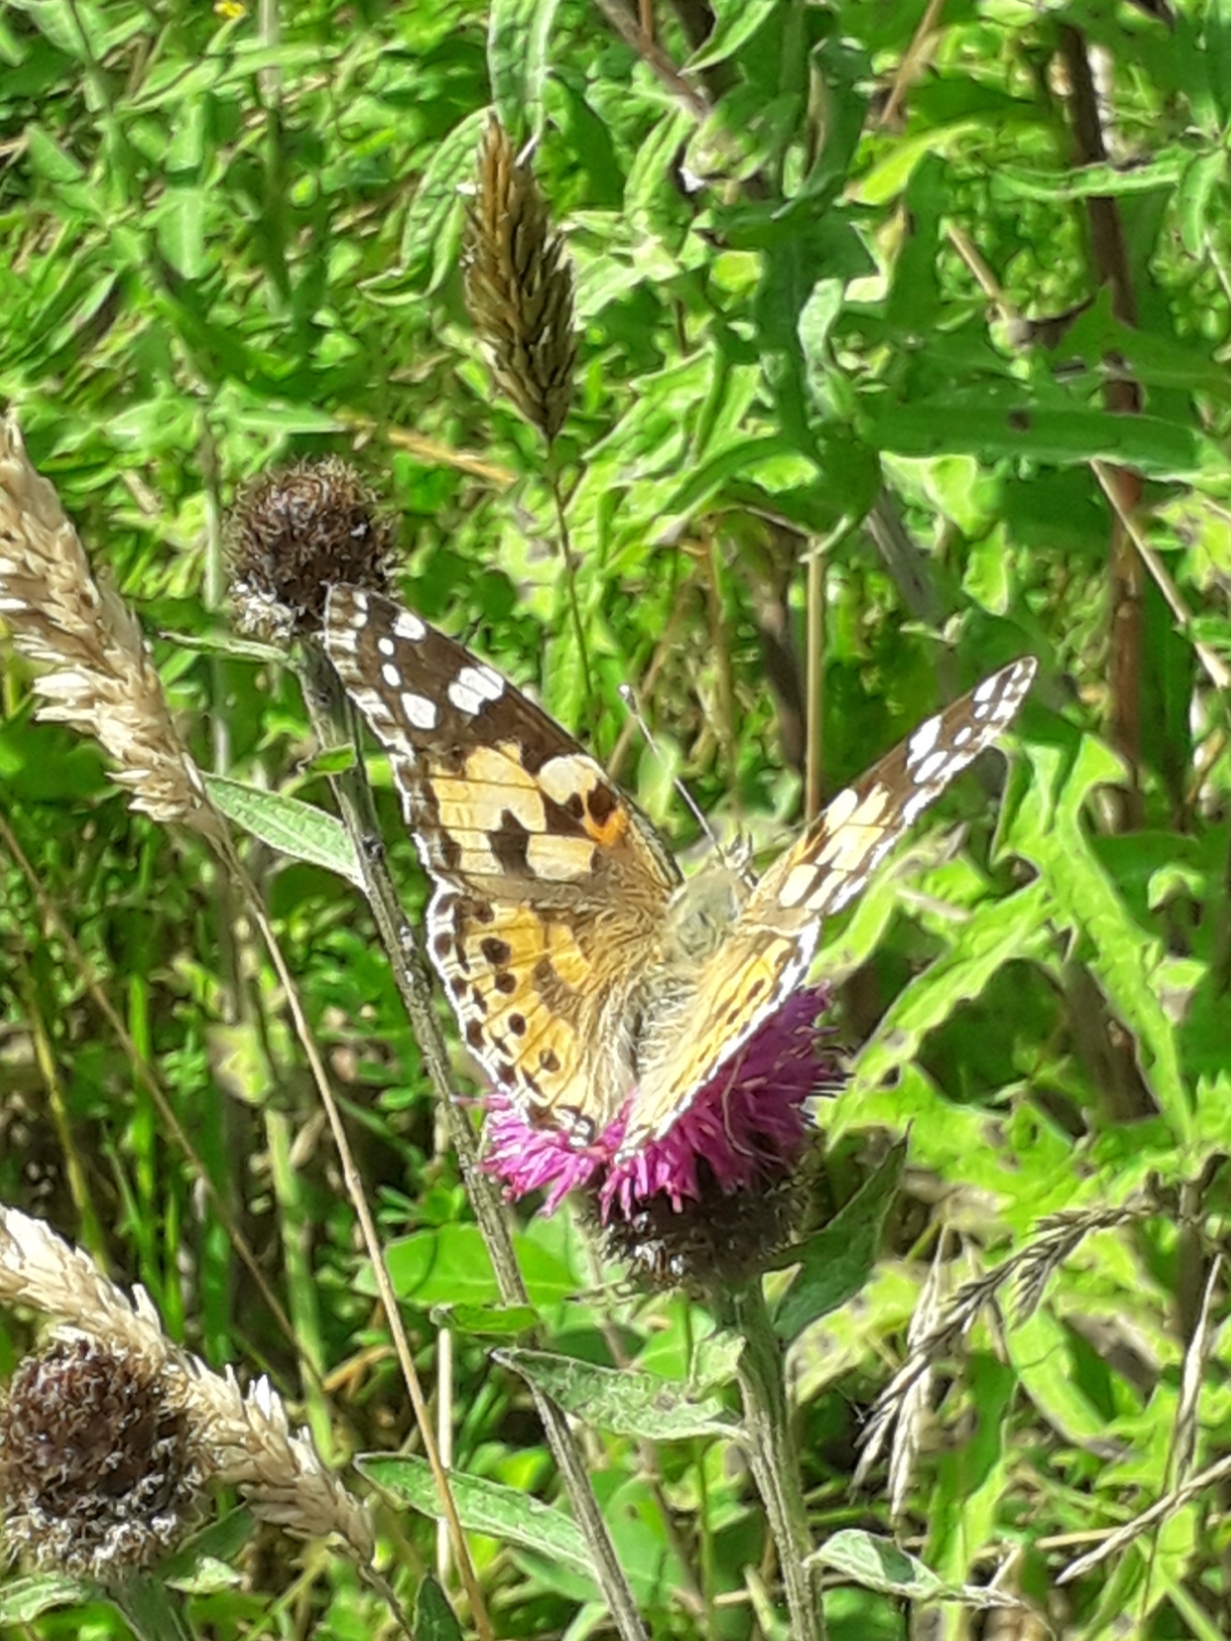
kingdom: Animalia
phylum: Arthropoda
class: Insecta
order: Lepidoptera
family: Nymphalidae
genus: Vanessa
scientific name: Vanessa cardui
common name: Painted lady
